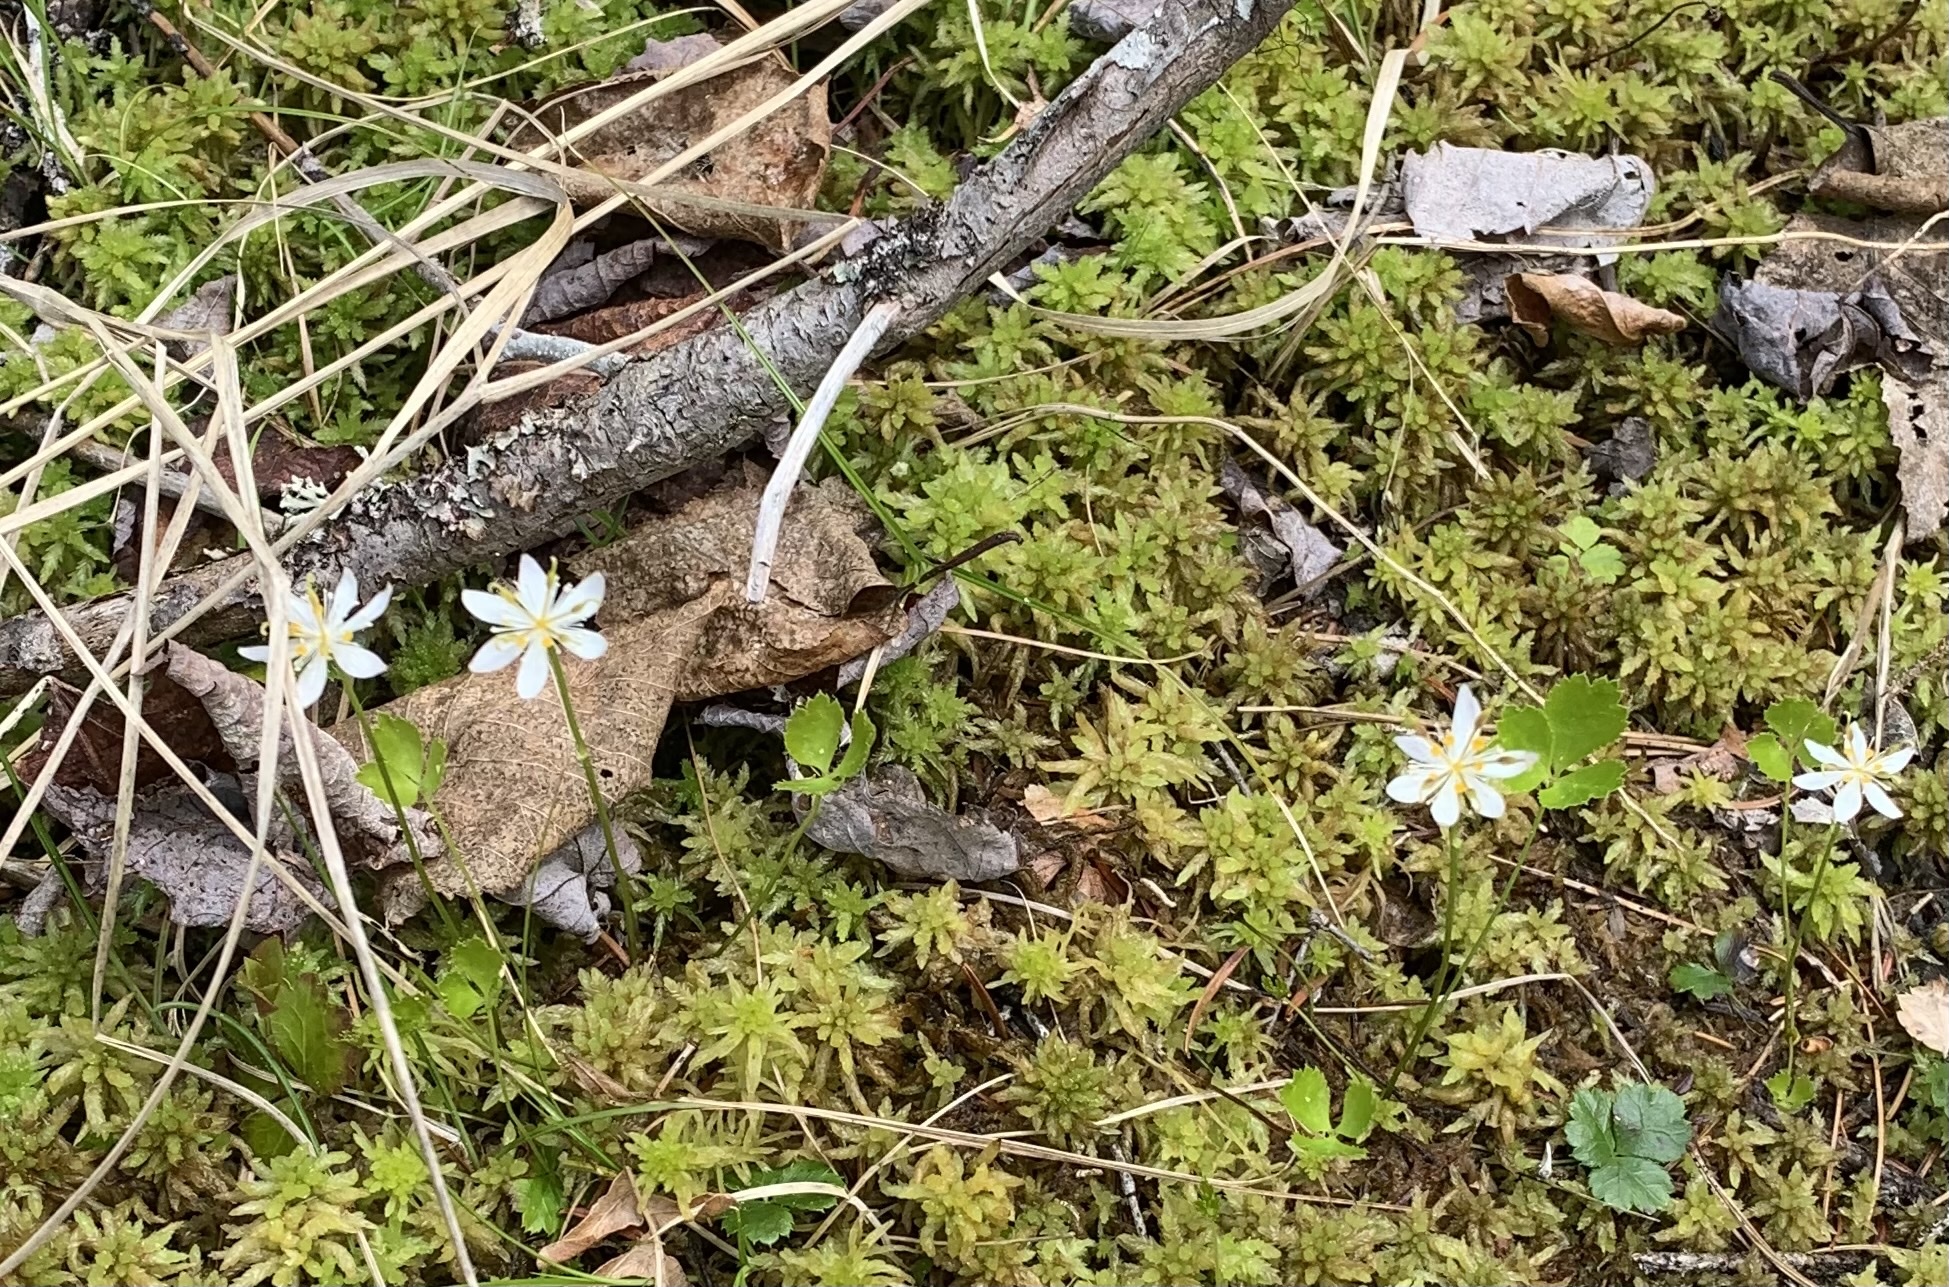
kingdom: Plantae
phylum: Tracheophyta
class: Magnoliopsida
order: Ranunculales
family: Ranunculaceae
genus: Coptis
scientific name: Coptis trifolia
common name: Canker-root
